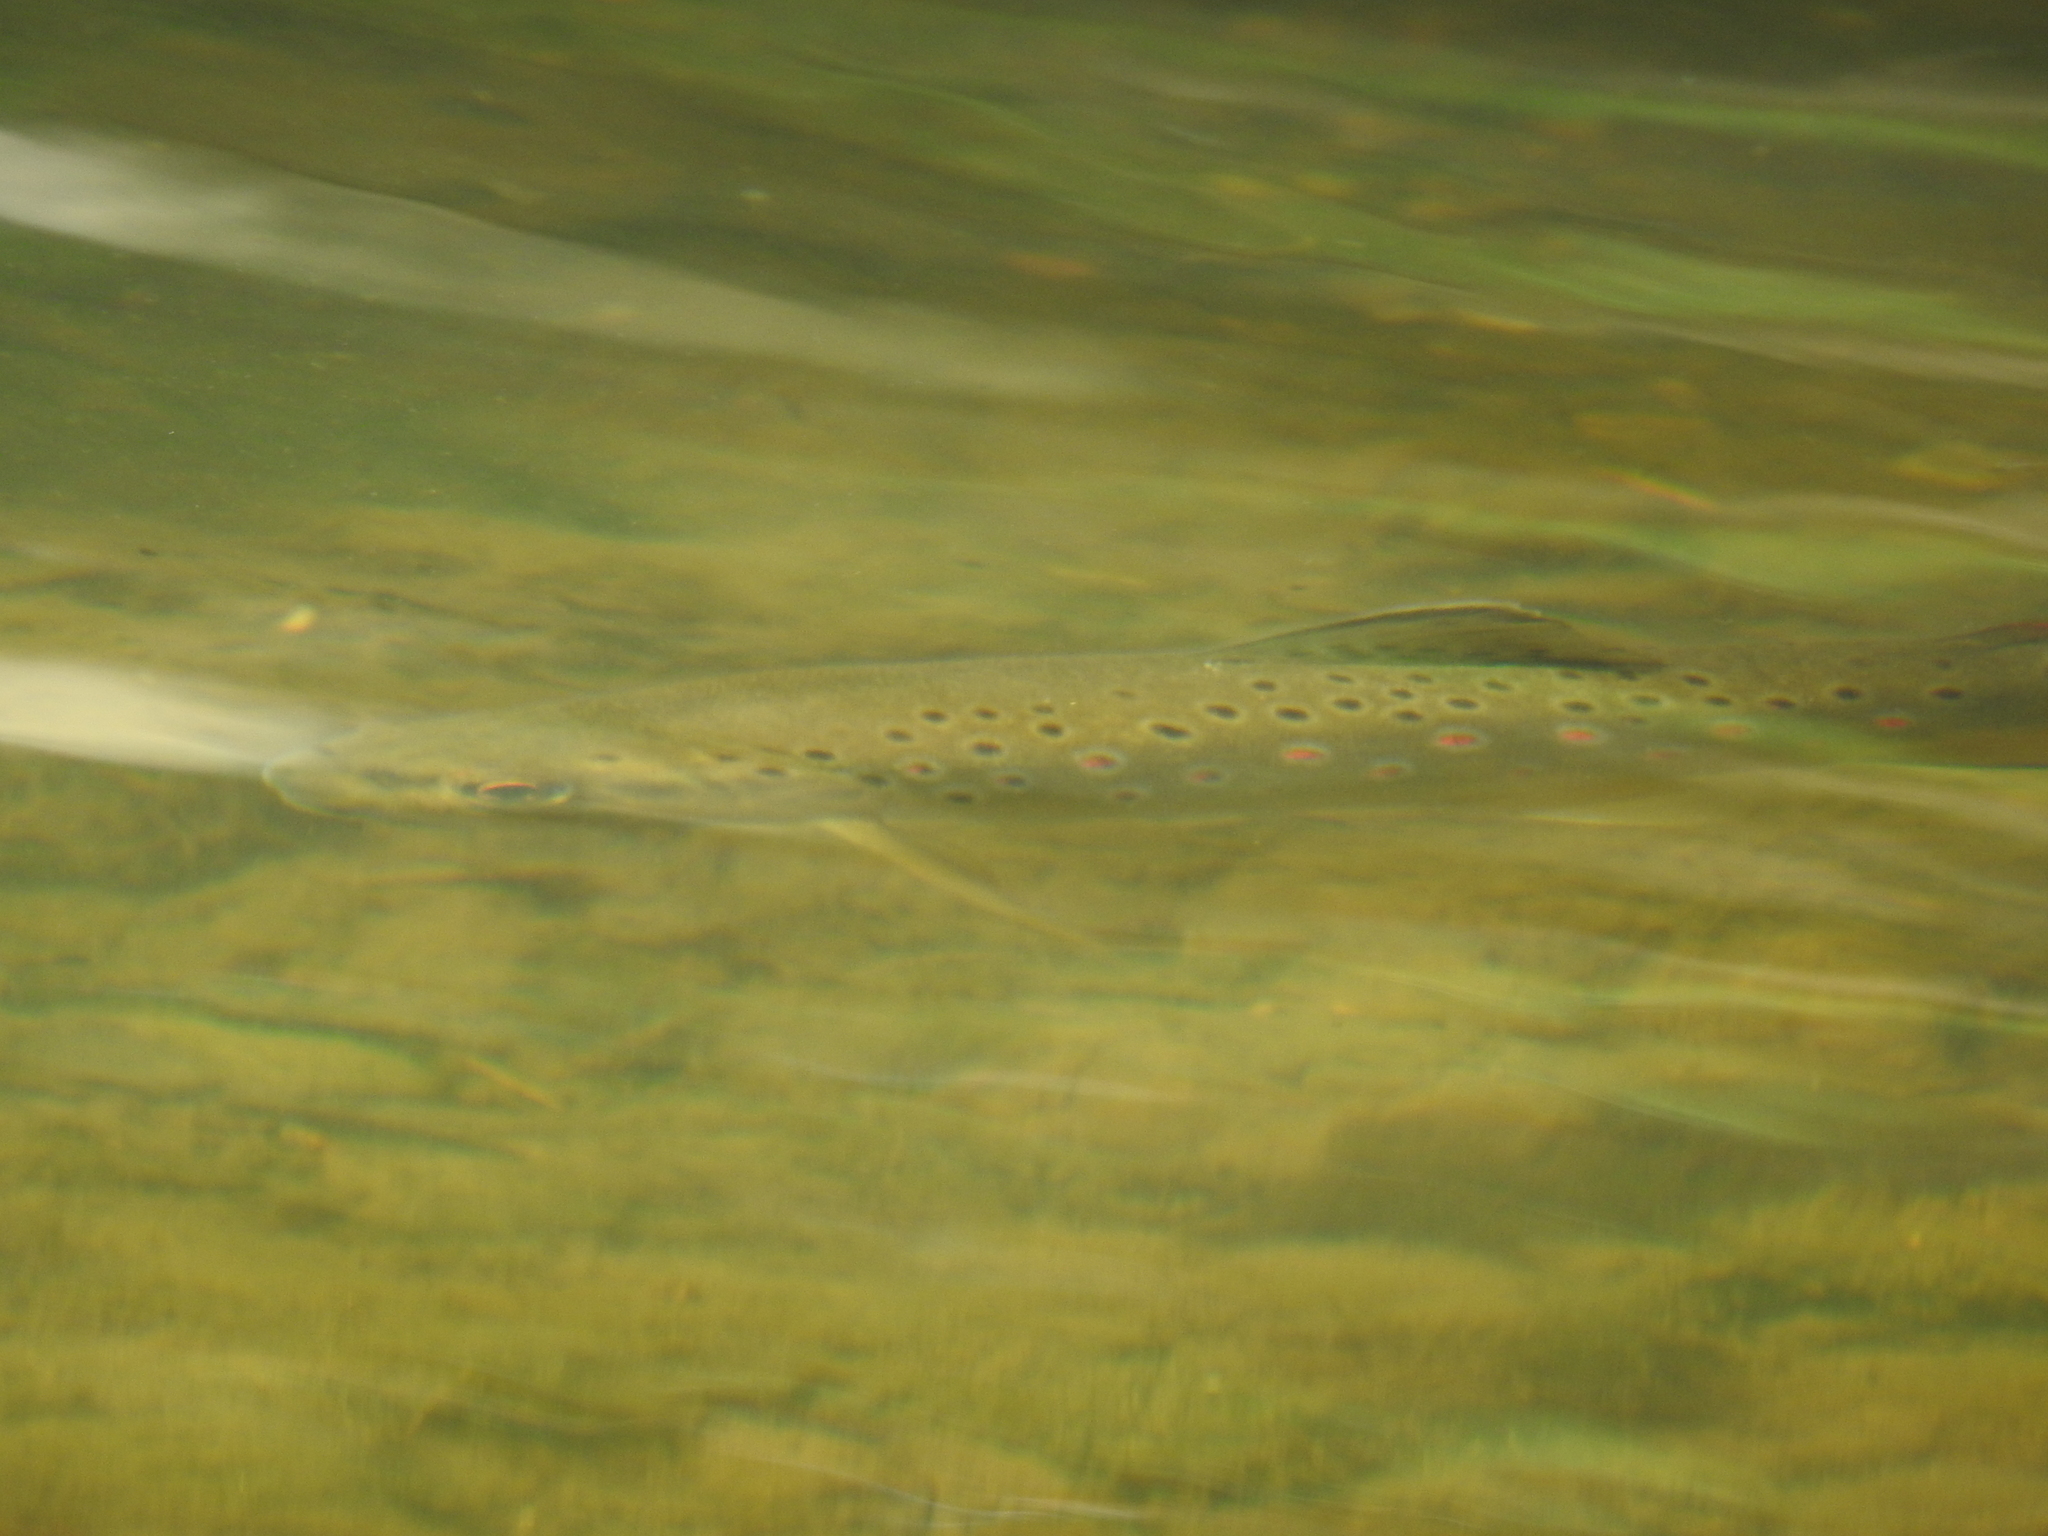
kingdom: Animalia
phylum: Chordata
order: Salmoniformes
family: Salmonidae
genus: Salmo
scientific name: Salmo trutta
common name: Brown trout
